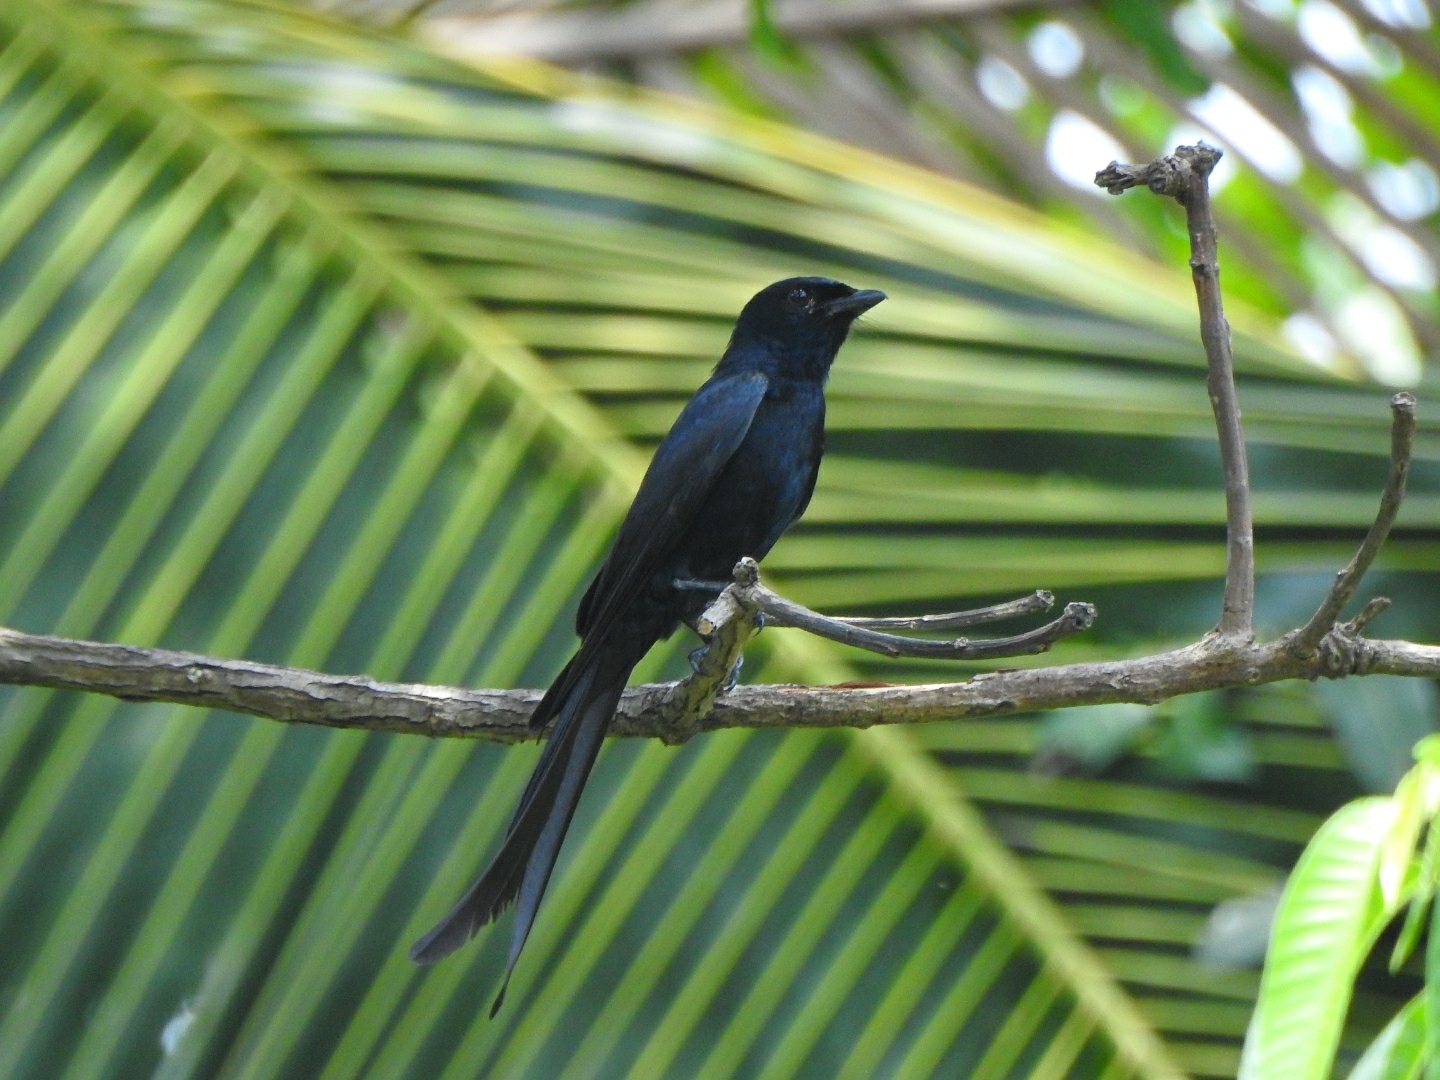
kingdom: Animalia
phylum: Chordata
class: Aves
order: Passeriformes
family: Dicruridae
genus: Dicrurus
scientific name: Dicrurus macrocercus
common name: Black drongo
